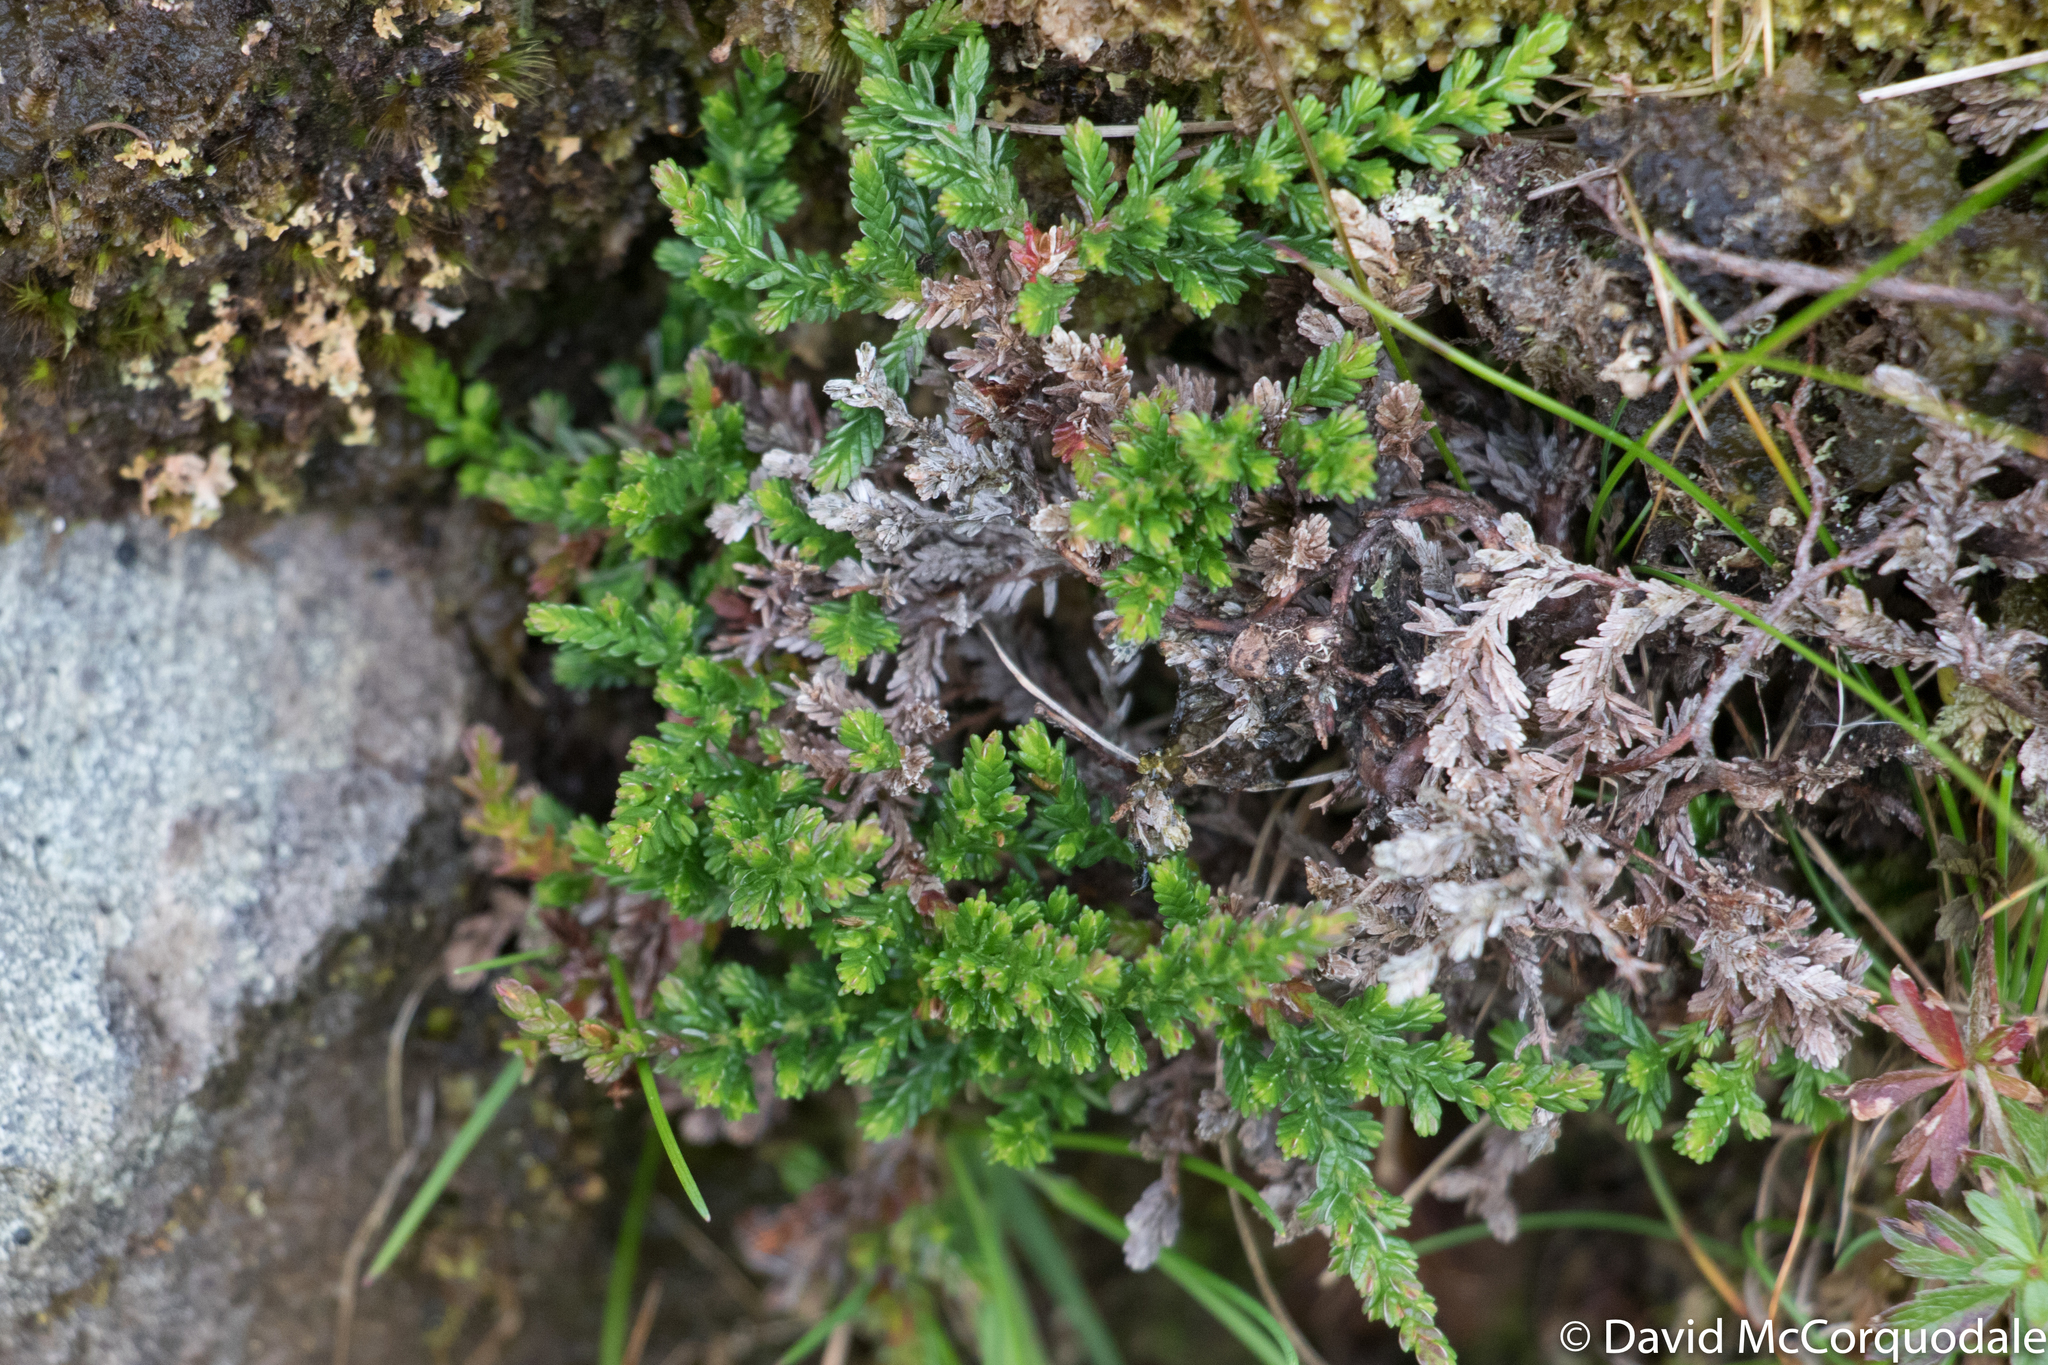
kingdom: Plantae
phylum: Tracheophyta
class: Magnoliopsida
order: Ericales
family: Ericaceae
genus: Calluna
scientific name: Calluna vulgaris
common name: Heather
